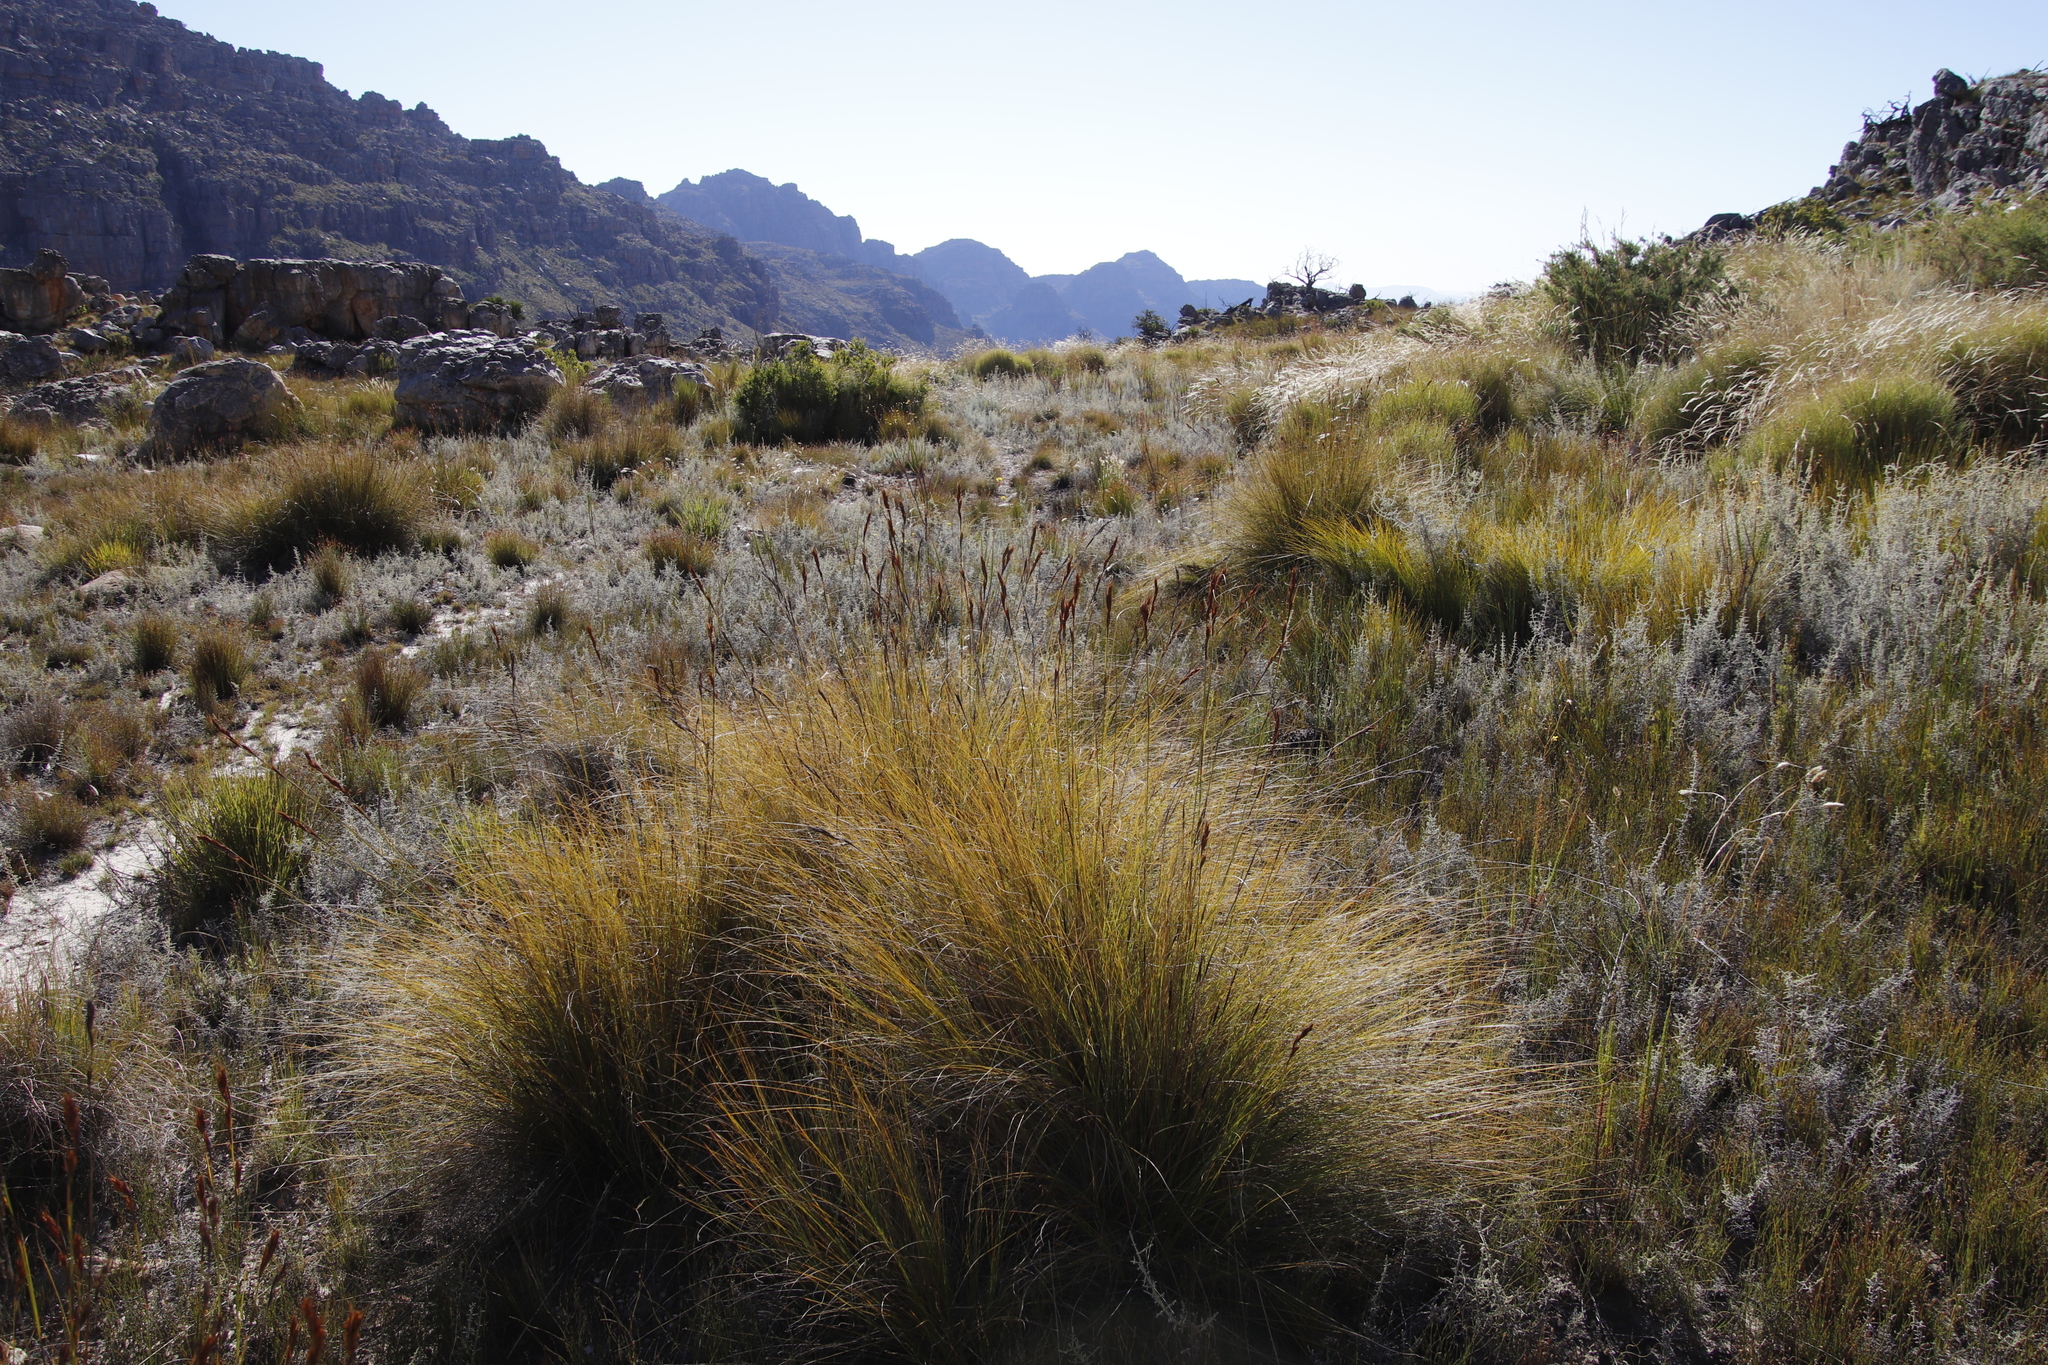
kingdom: Plantae
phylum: Tracheophyta
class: Liliopsida
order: Poales
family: Cyperaceae
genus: Tetraria
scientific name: Tetraria ustulata
